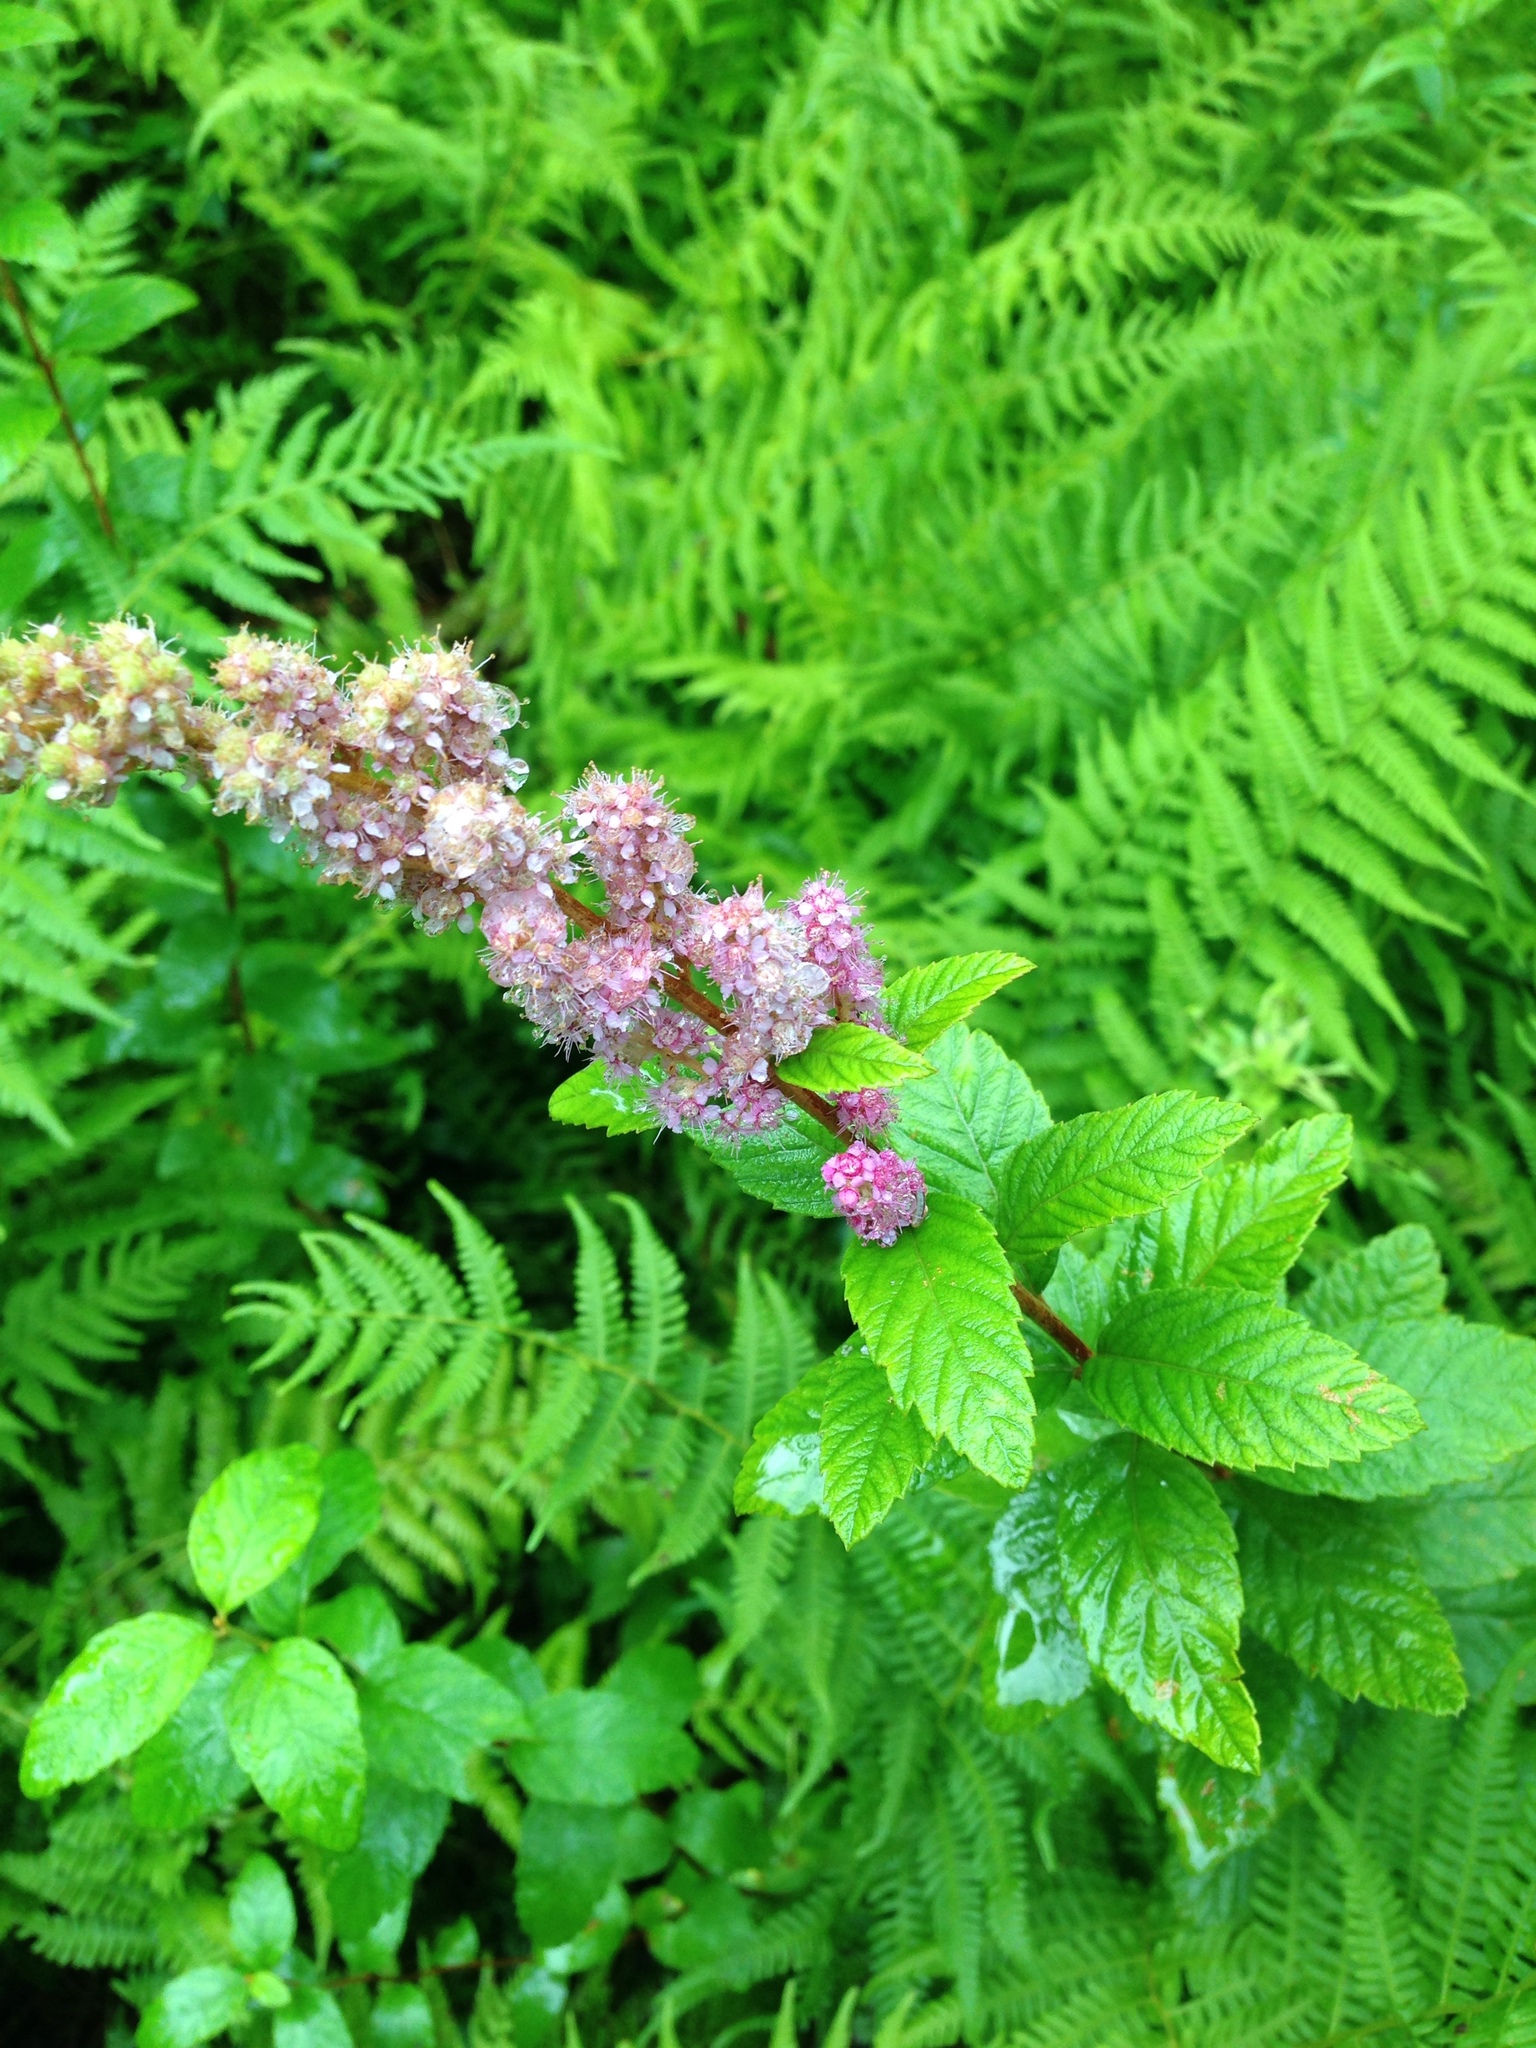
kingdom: Plantae
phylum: Tracheophyta
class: Magnoliopsida
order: Rosales
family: Rosaceae
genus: Spiraea
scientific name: Spiraea tomentosa
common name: Hardhack
